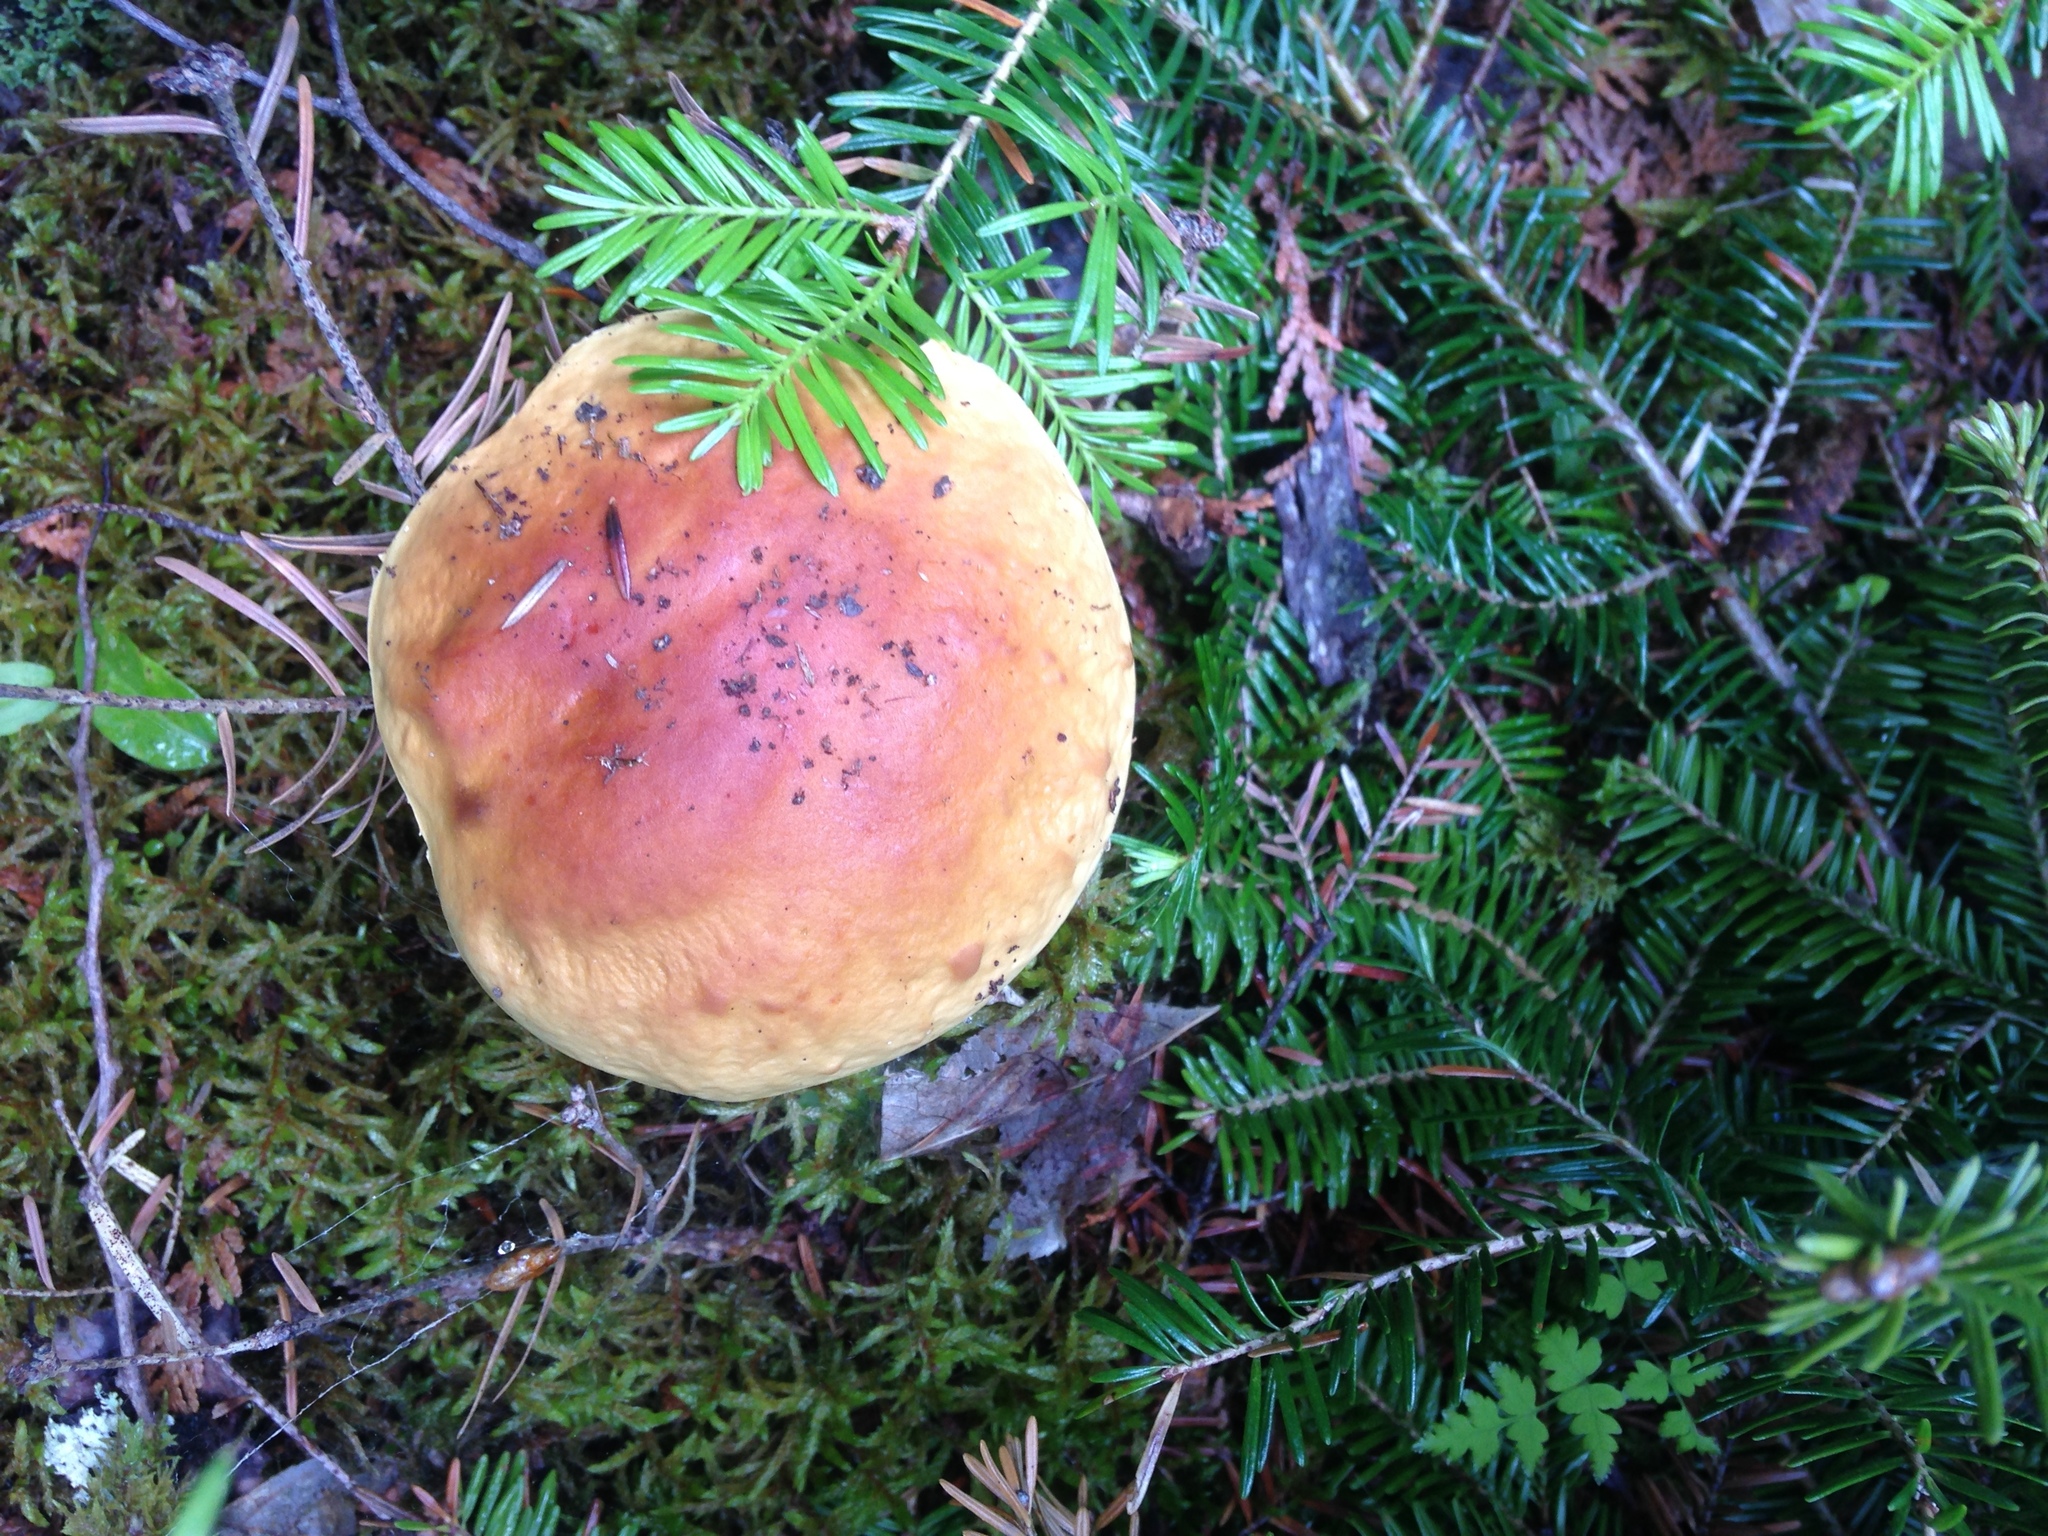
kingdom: Fungi
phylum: Basidiomycota
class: Agaricomycetes
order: Boletales
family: Boletaceae
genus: Boletus
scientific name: Boletus chippewaensis
